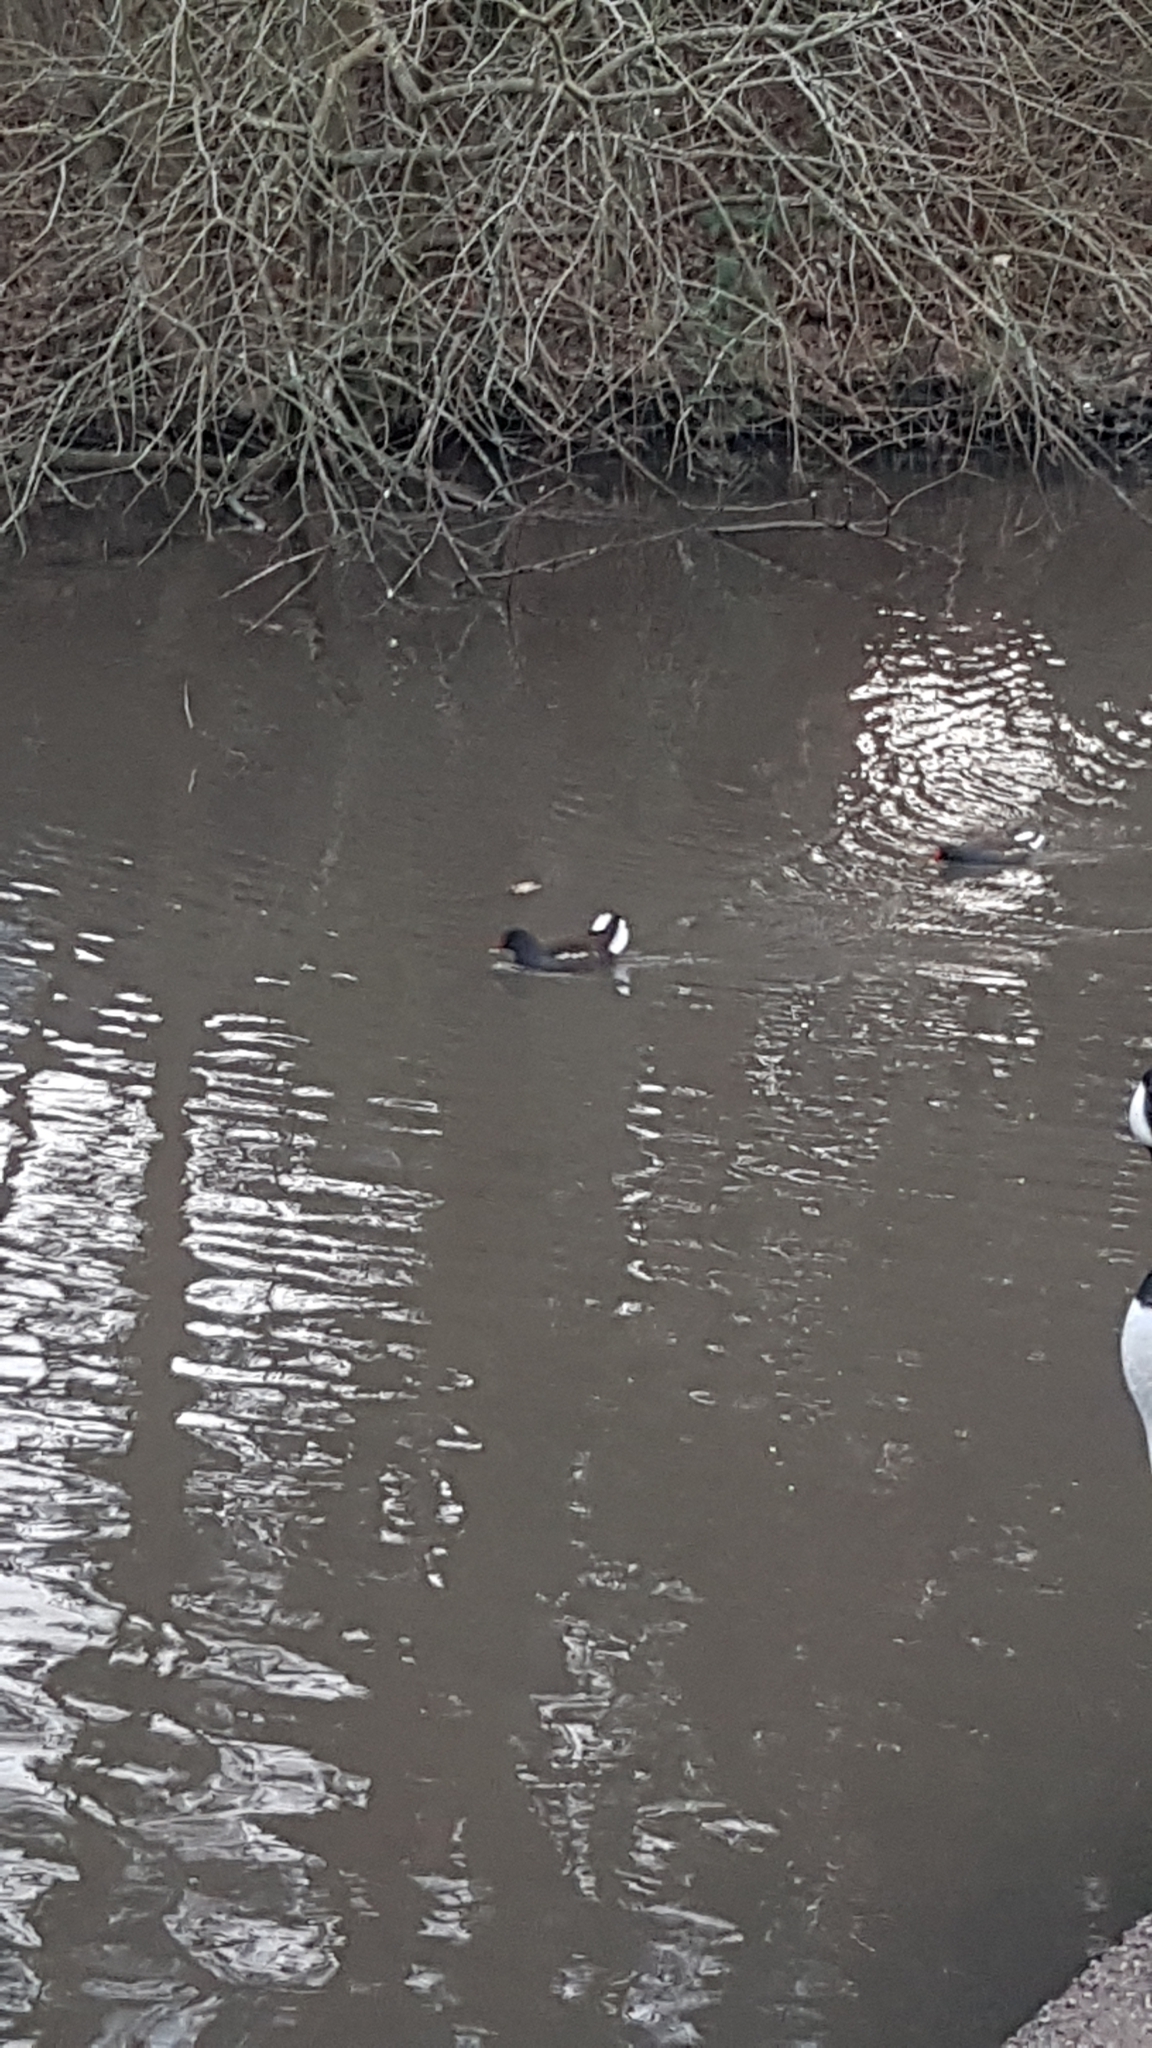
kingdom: Animalia
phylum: Chordata
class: Aves
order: Gruiformes
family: Rallidae
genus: Gallinula
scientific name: Gallinula chloropus
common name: Common moorhen
